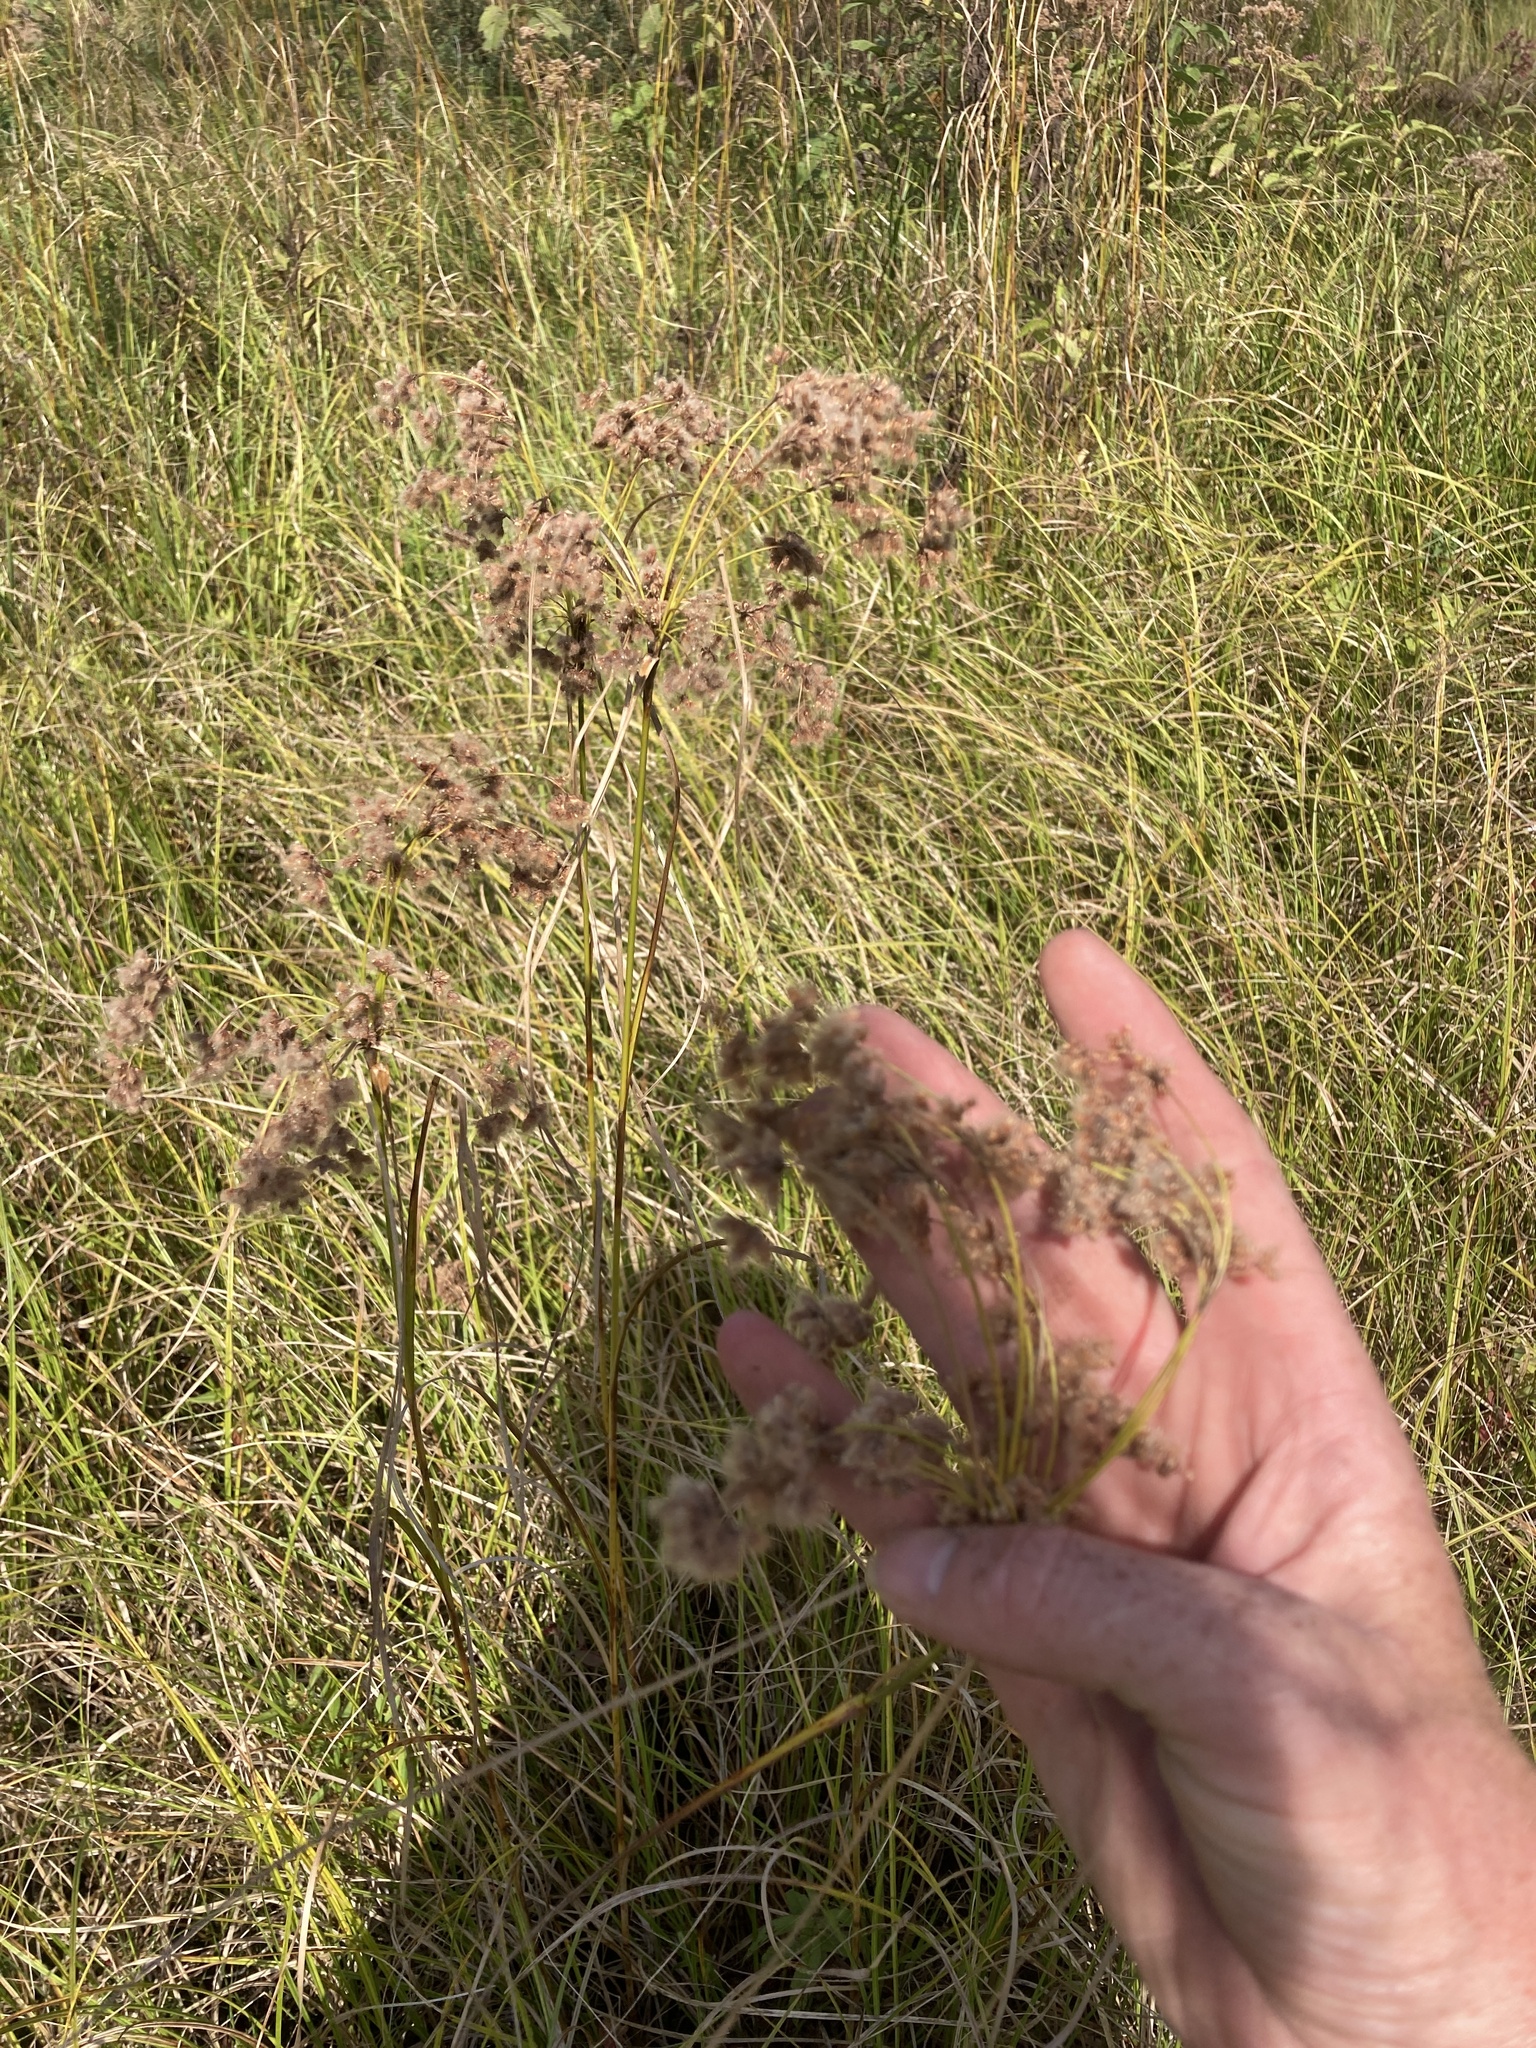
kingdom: Plantae
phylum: Tracheophyta
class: Liliopsida
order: Poales
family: Cyperaceae
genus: Scirpus
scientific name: Scirpus cyperinus
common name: Black-sheathed bulrush
